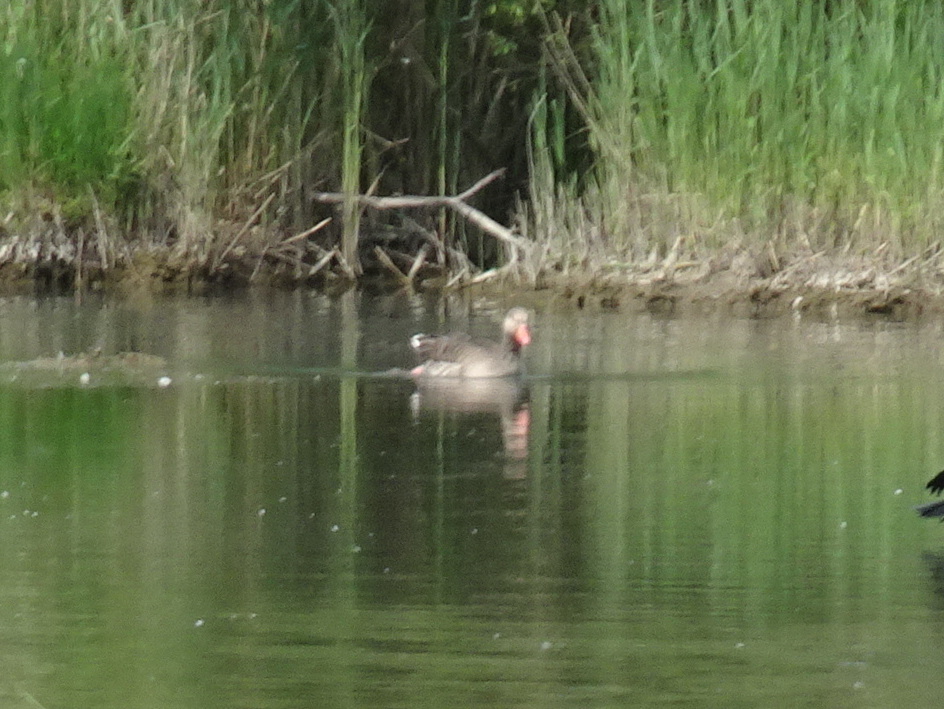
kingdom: Animalia
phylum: Chordata
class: Aves
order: Anseriformes
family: Anatidae
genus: Anser
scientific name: Anser anser
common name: Greylag goose
